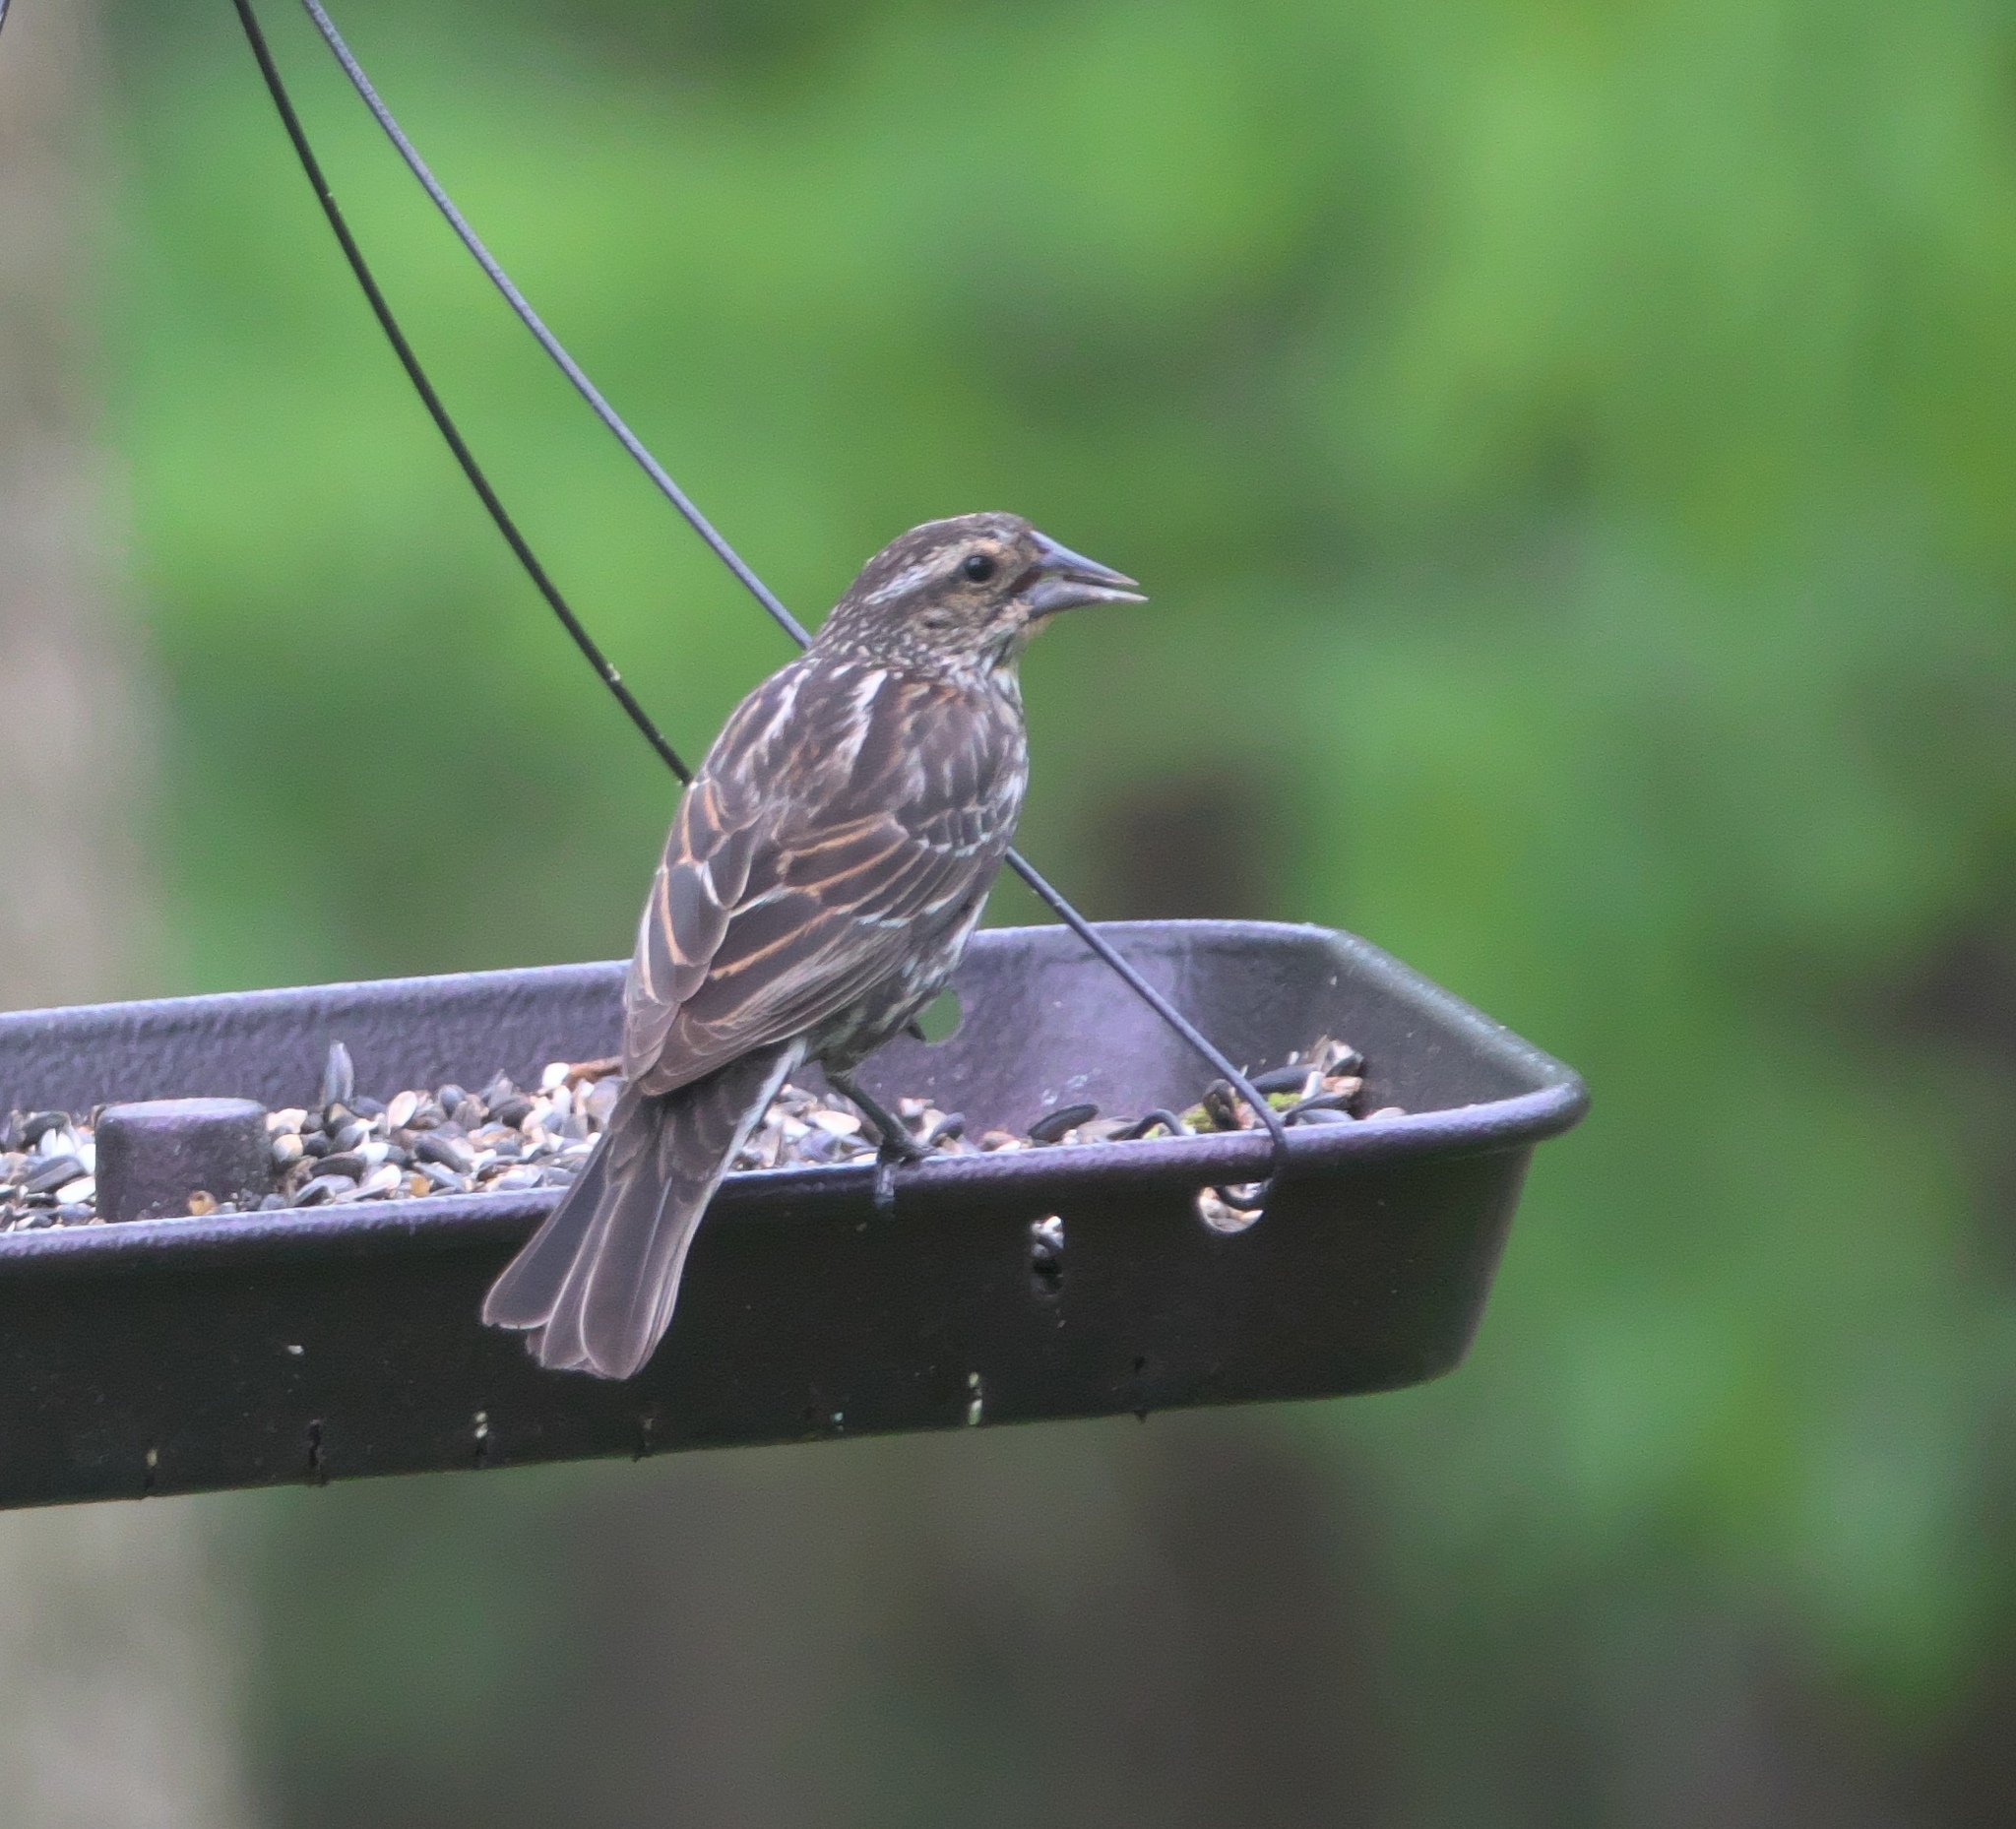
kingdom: Animalia
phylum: Chordata
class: Aves
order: Passeriformes
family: Icteridae
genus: Agelaius
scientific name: Agelaius phoeniceus
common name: Red-winged blackbird
